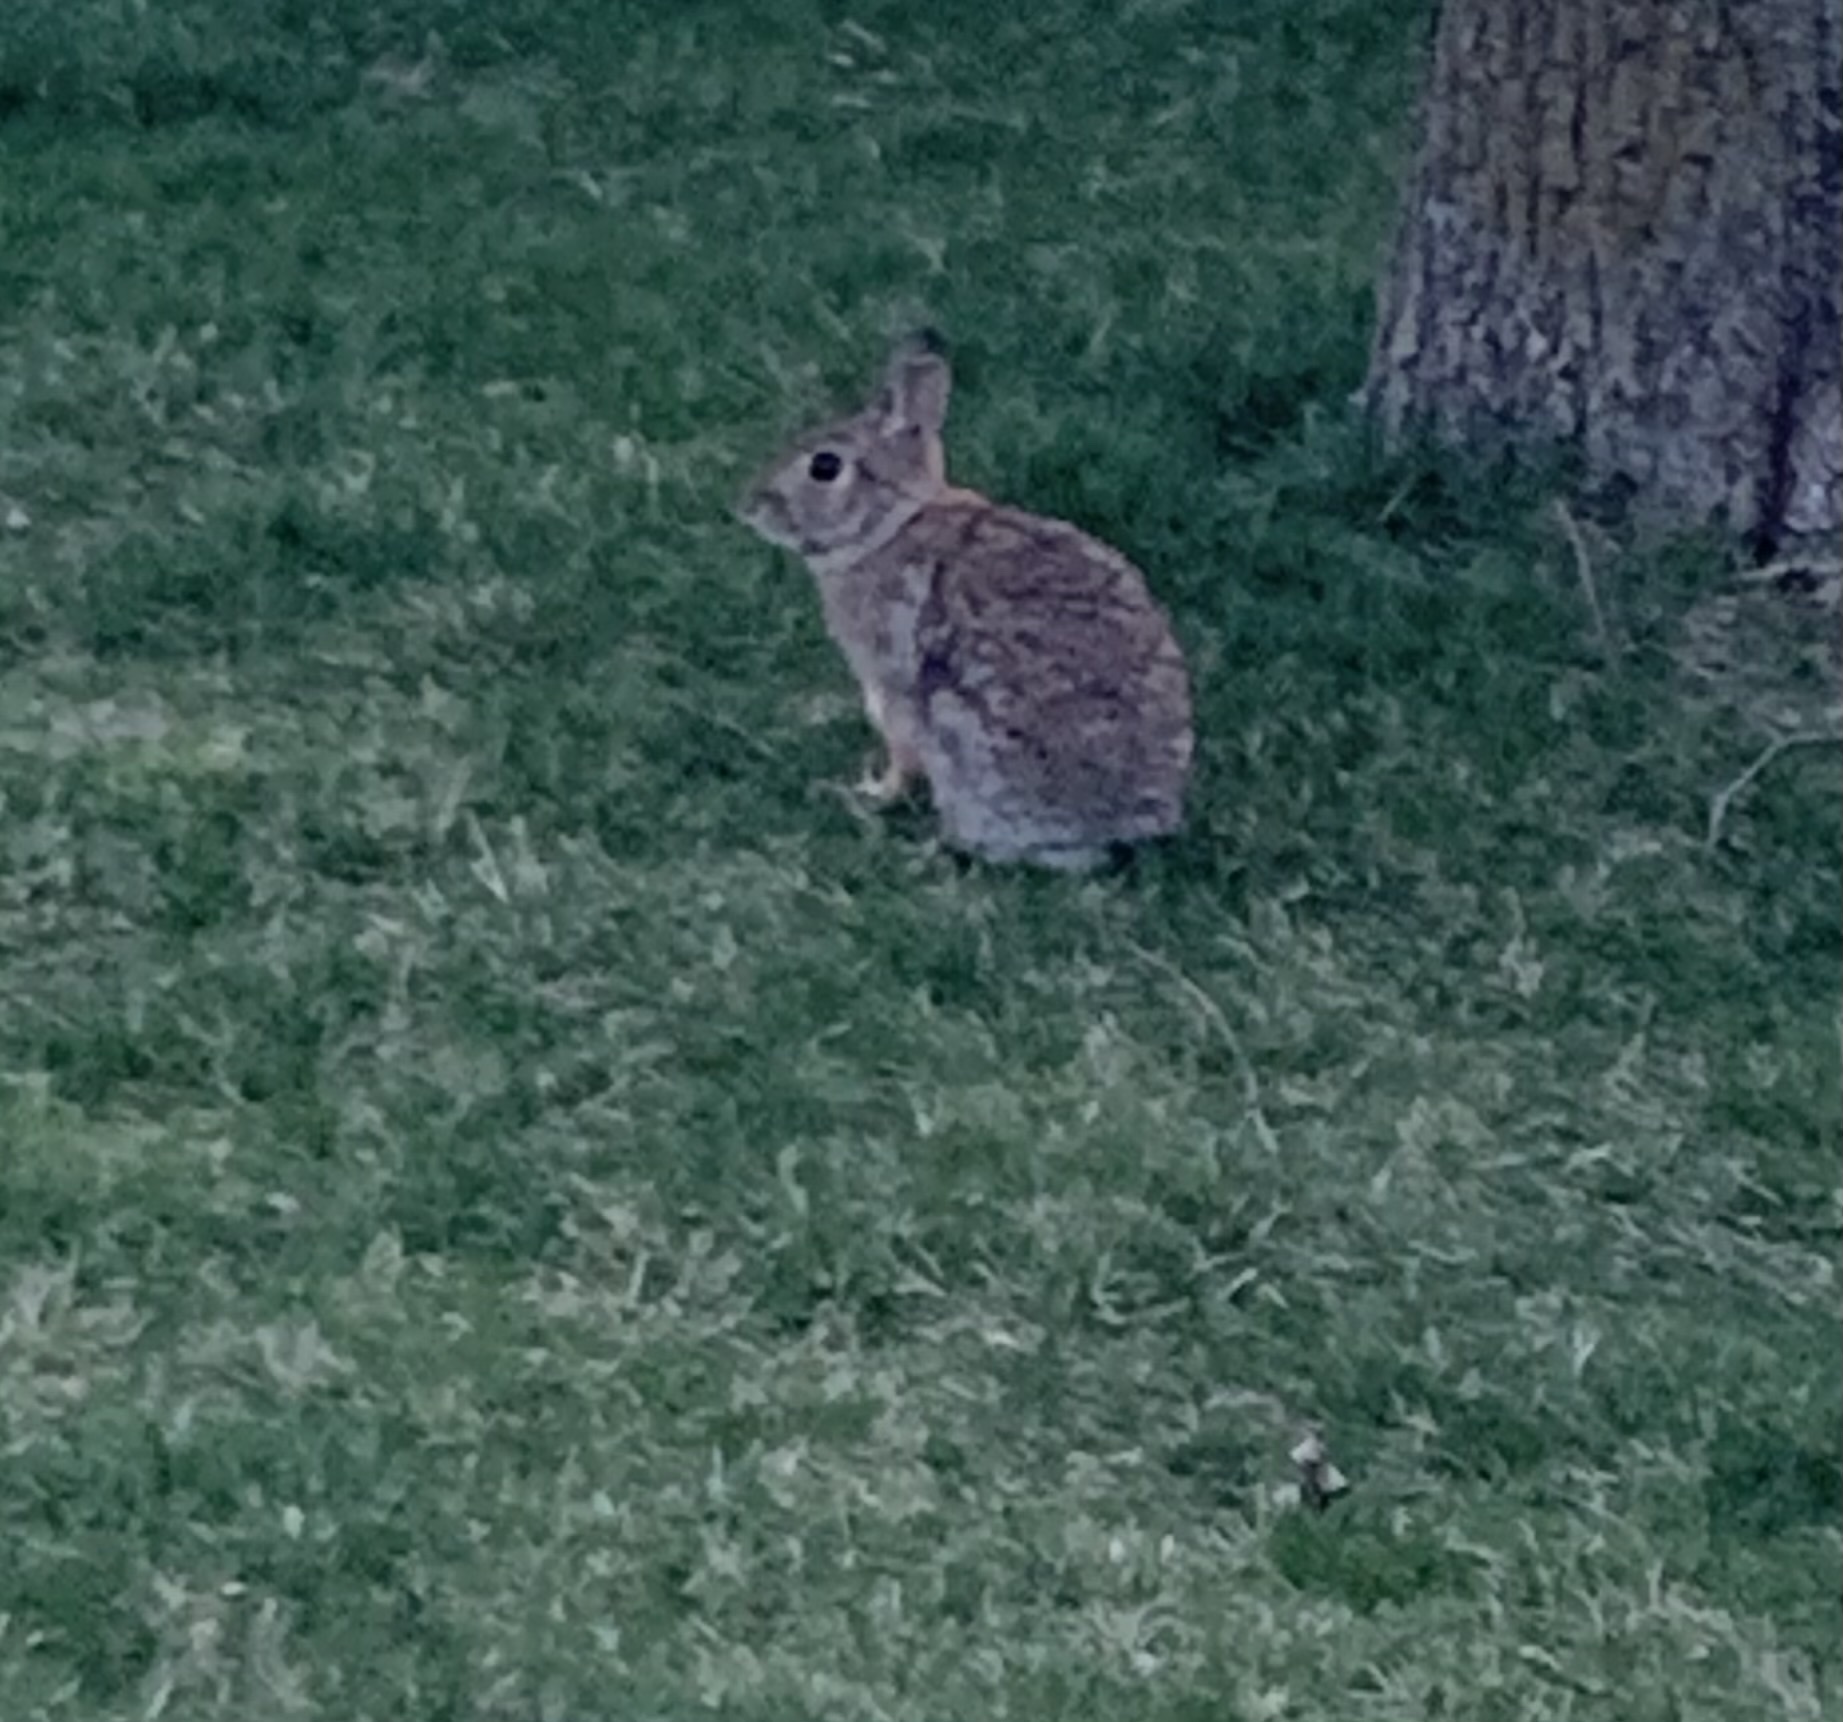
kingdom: Animalia
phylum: Chordata
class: Mammalia
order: Lagomorpha
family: Leporidae
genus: Sylvilagus
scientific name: Sylvilagus floridanus
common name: Eastern cottontail
